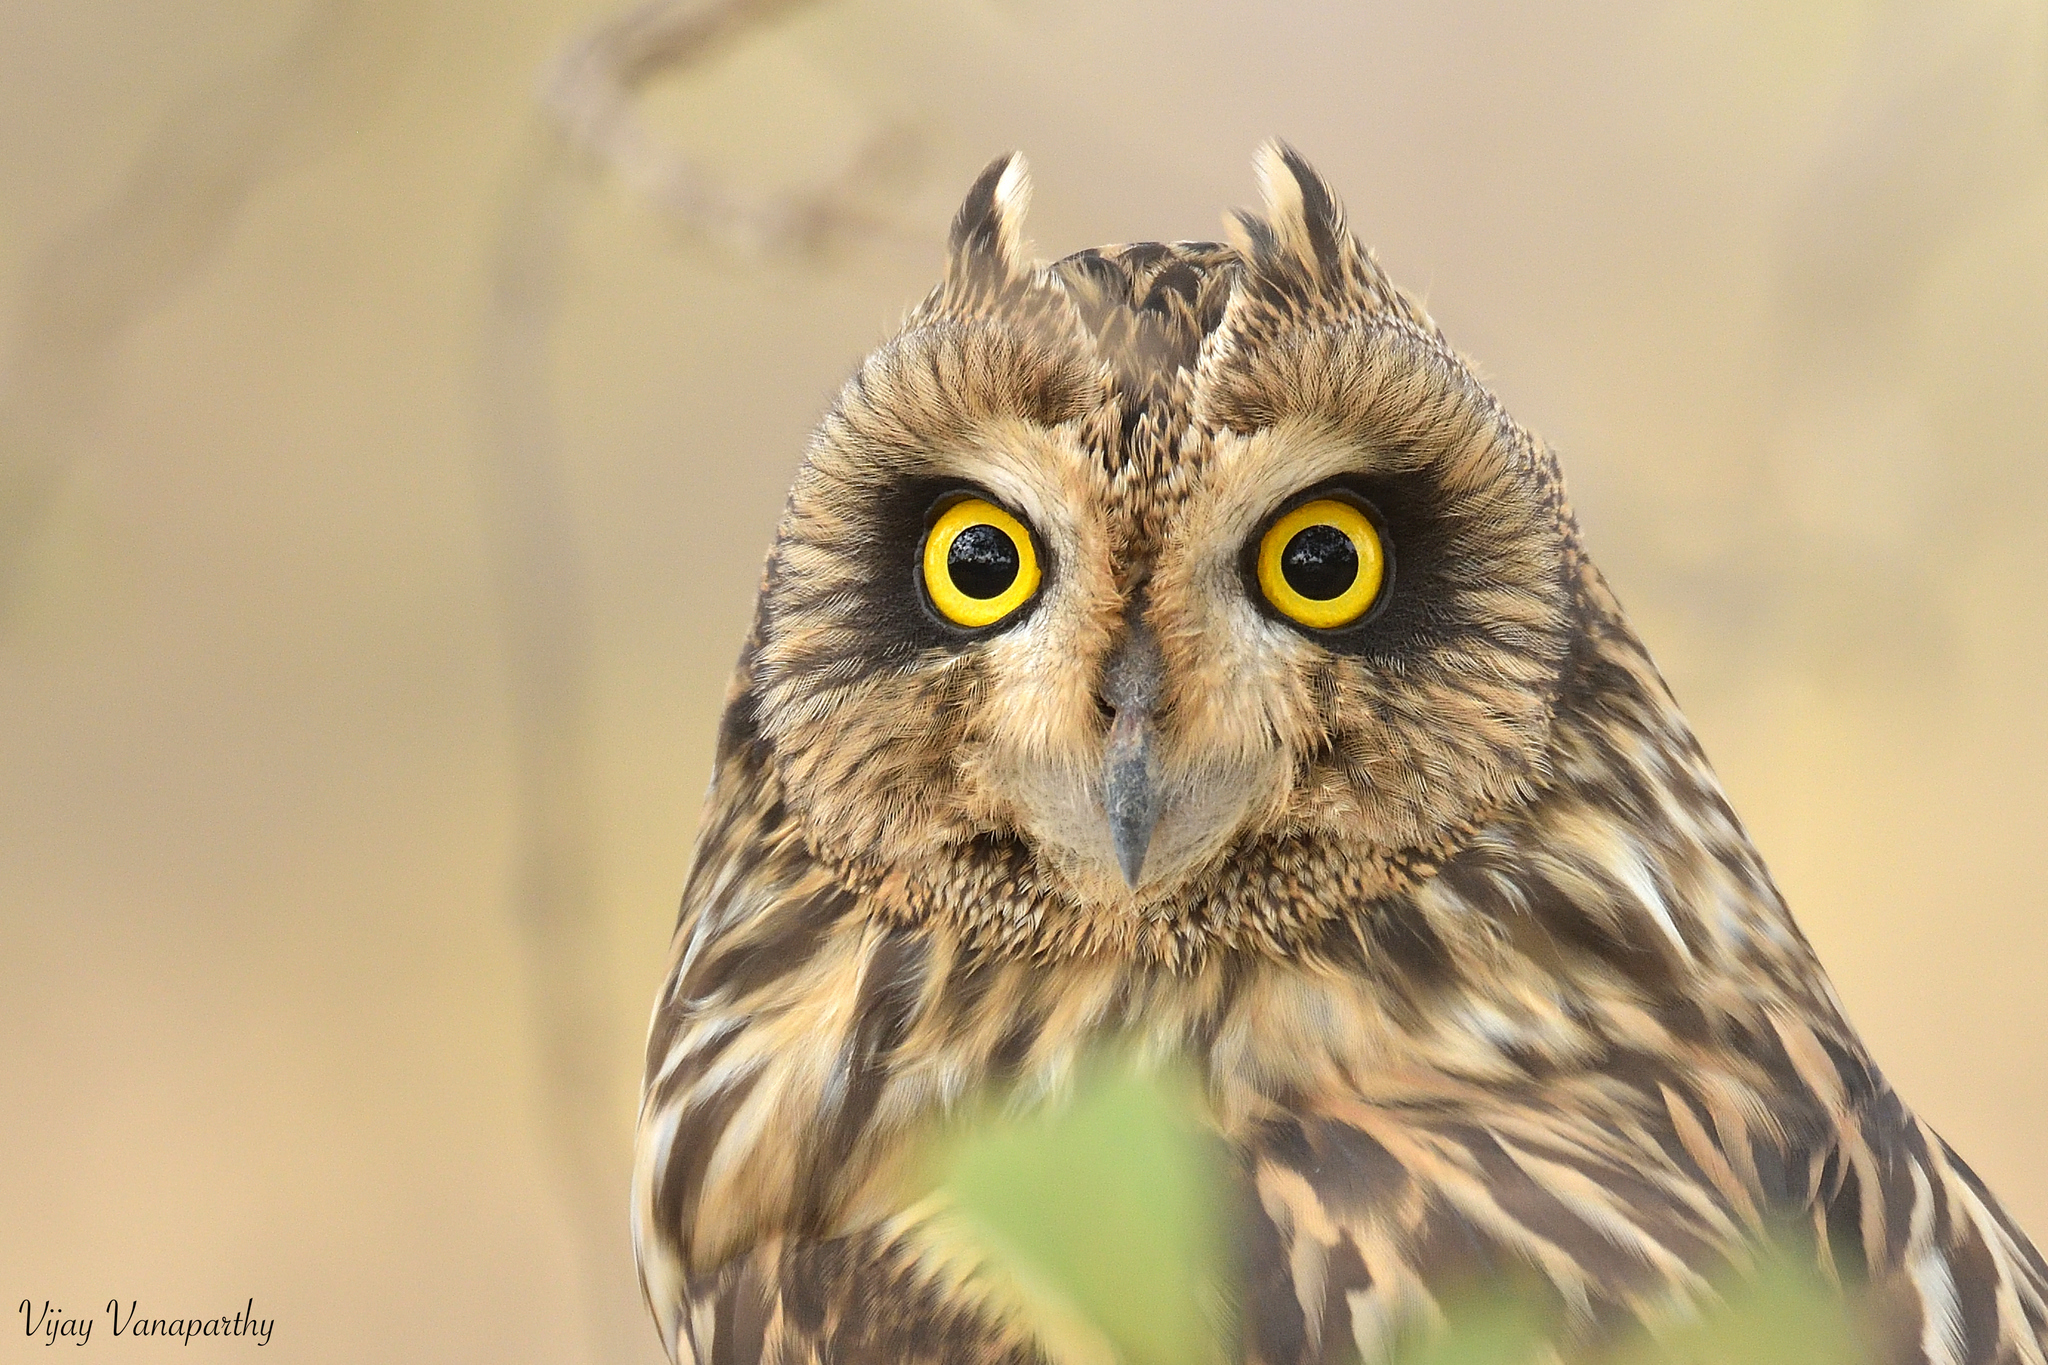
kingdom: Animalia
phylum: Chordata
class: Aves
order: Strigiformes
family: Strigidae
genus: Asio
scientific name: Asio flammeus
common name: Short-eared owl
